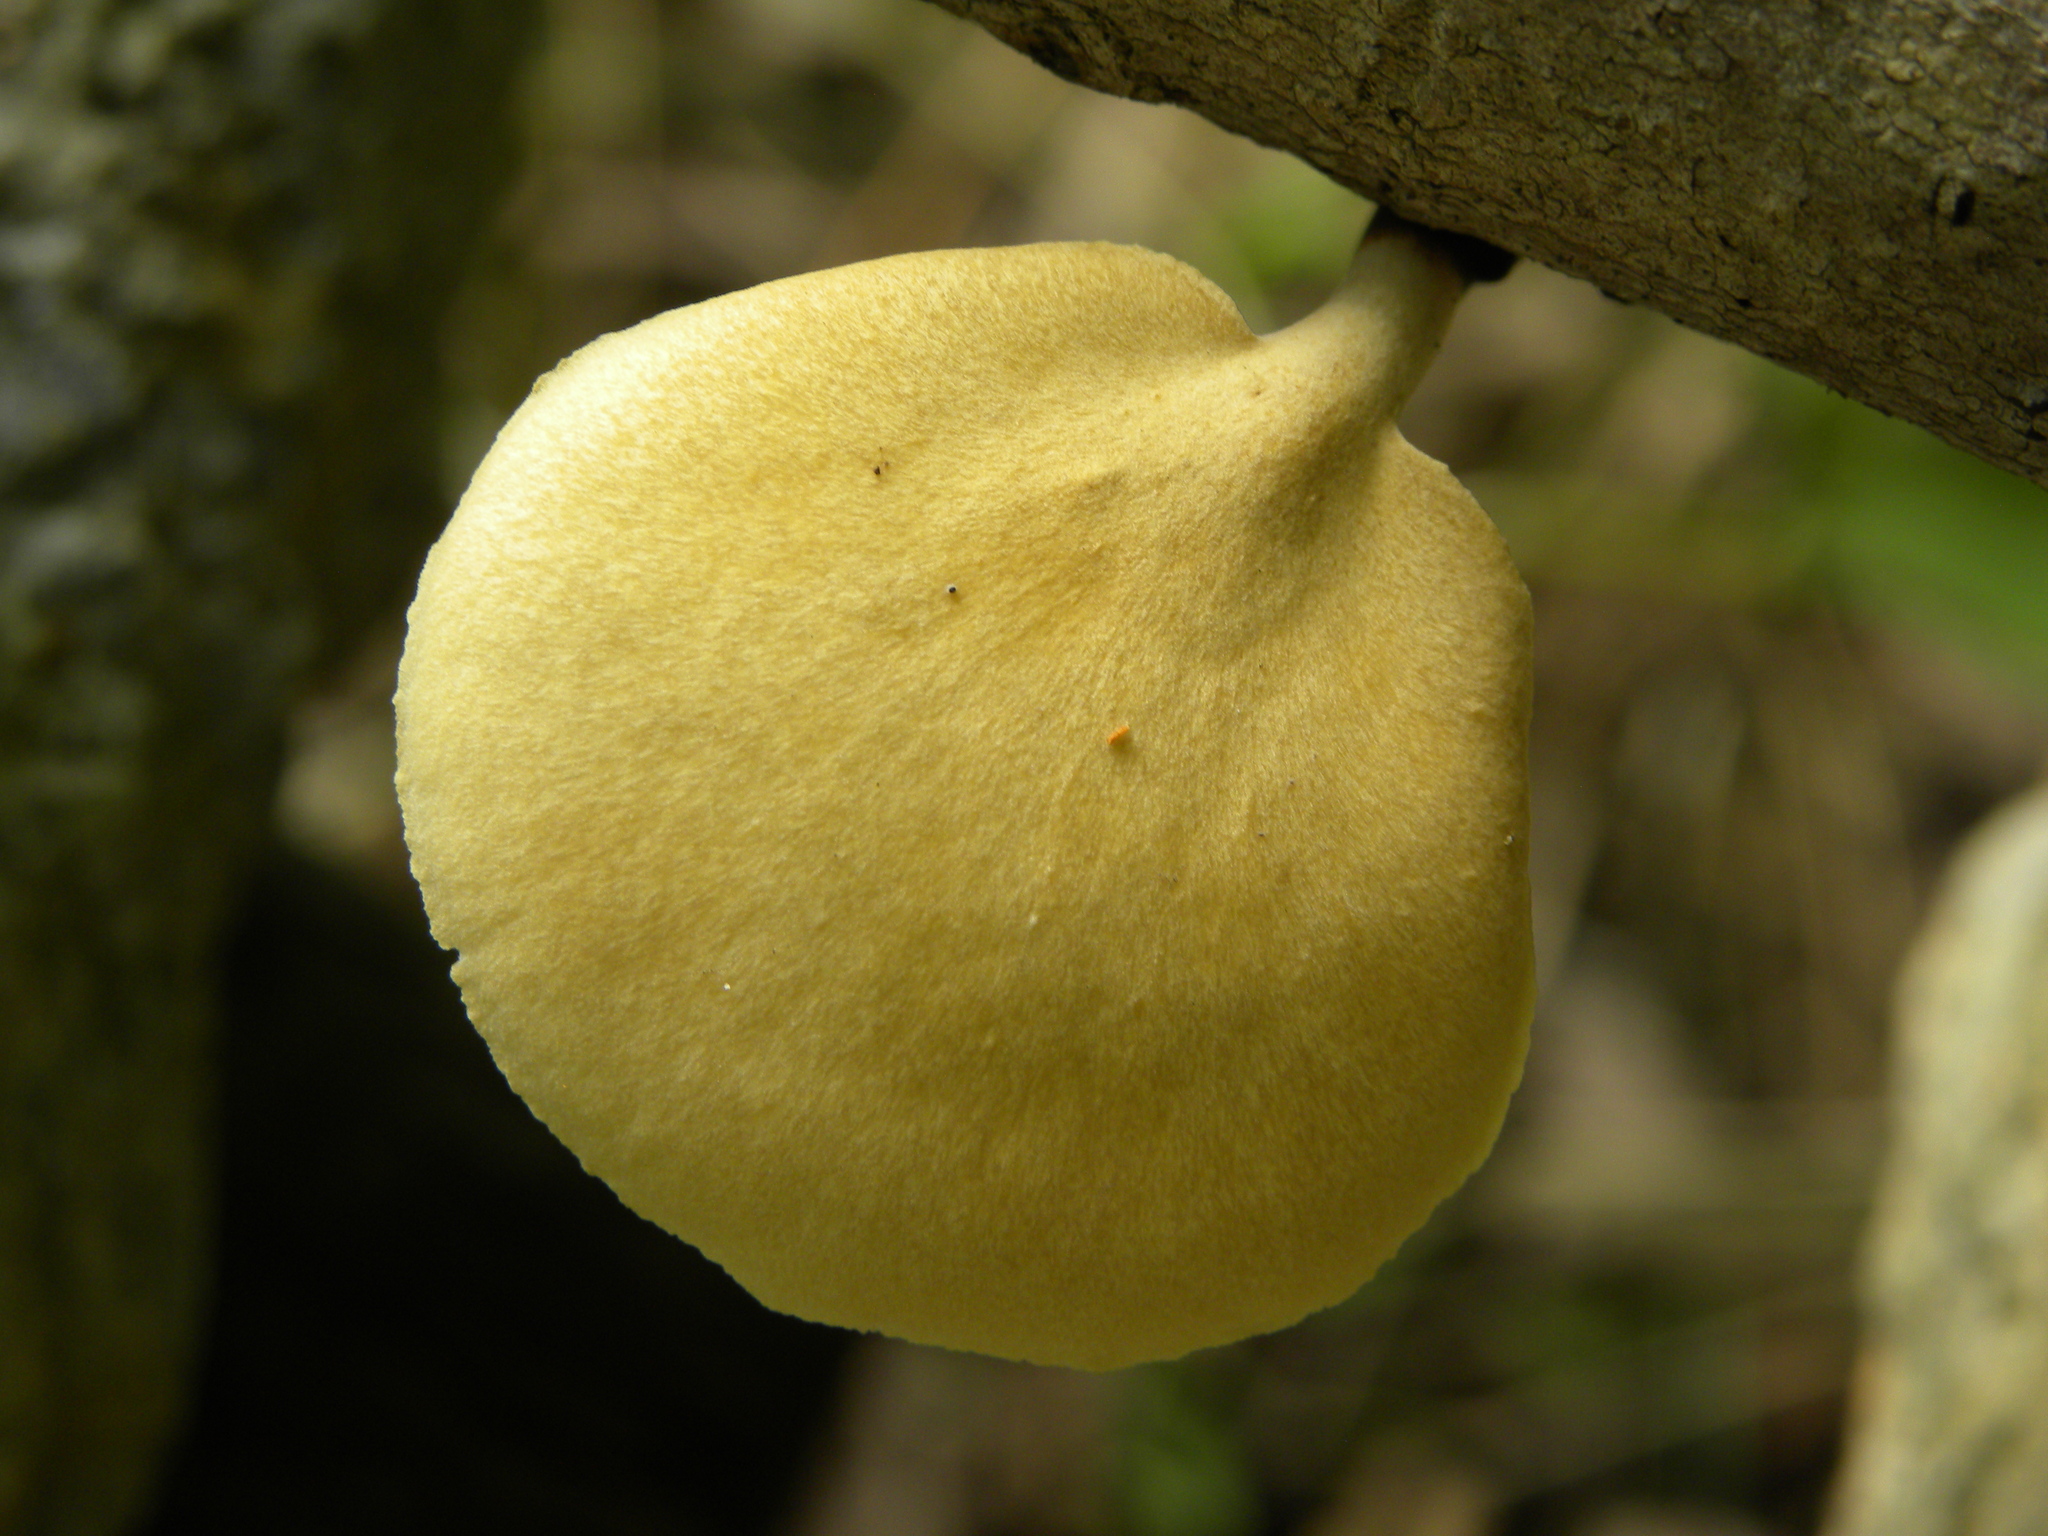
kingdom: Fungi
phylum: Basidiomycota
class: Agaricomycetes
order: Polyporales
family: Polyporaceae
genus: Cerioporus
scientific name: Cerioporus leptocephalus
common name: Blackfoot polypore
